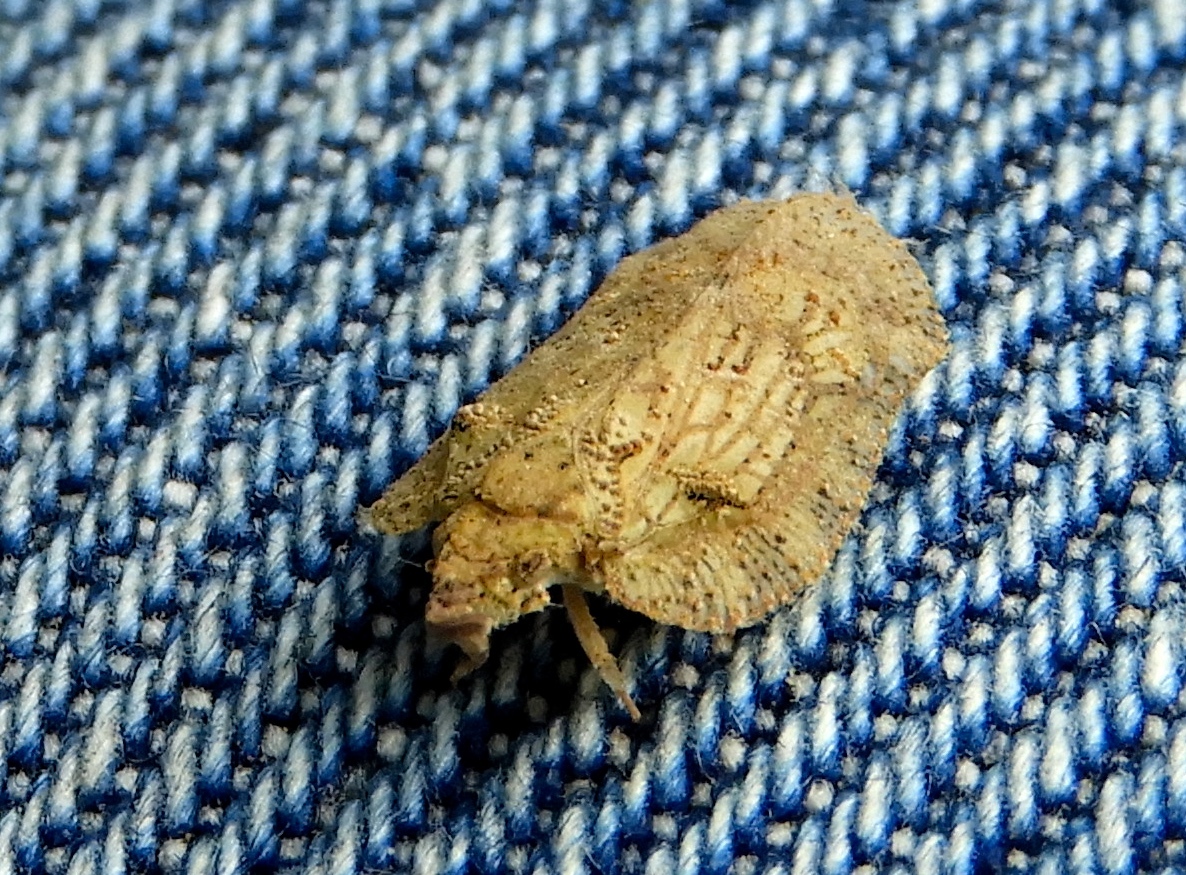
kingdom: Animalia
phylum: Arthropoda
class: Insecta
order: Hemiptera
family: Flatidae
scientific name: Flatidae
